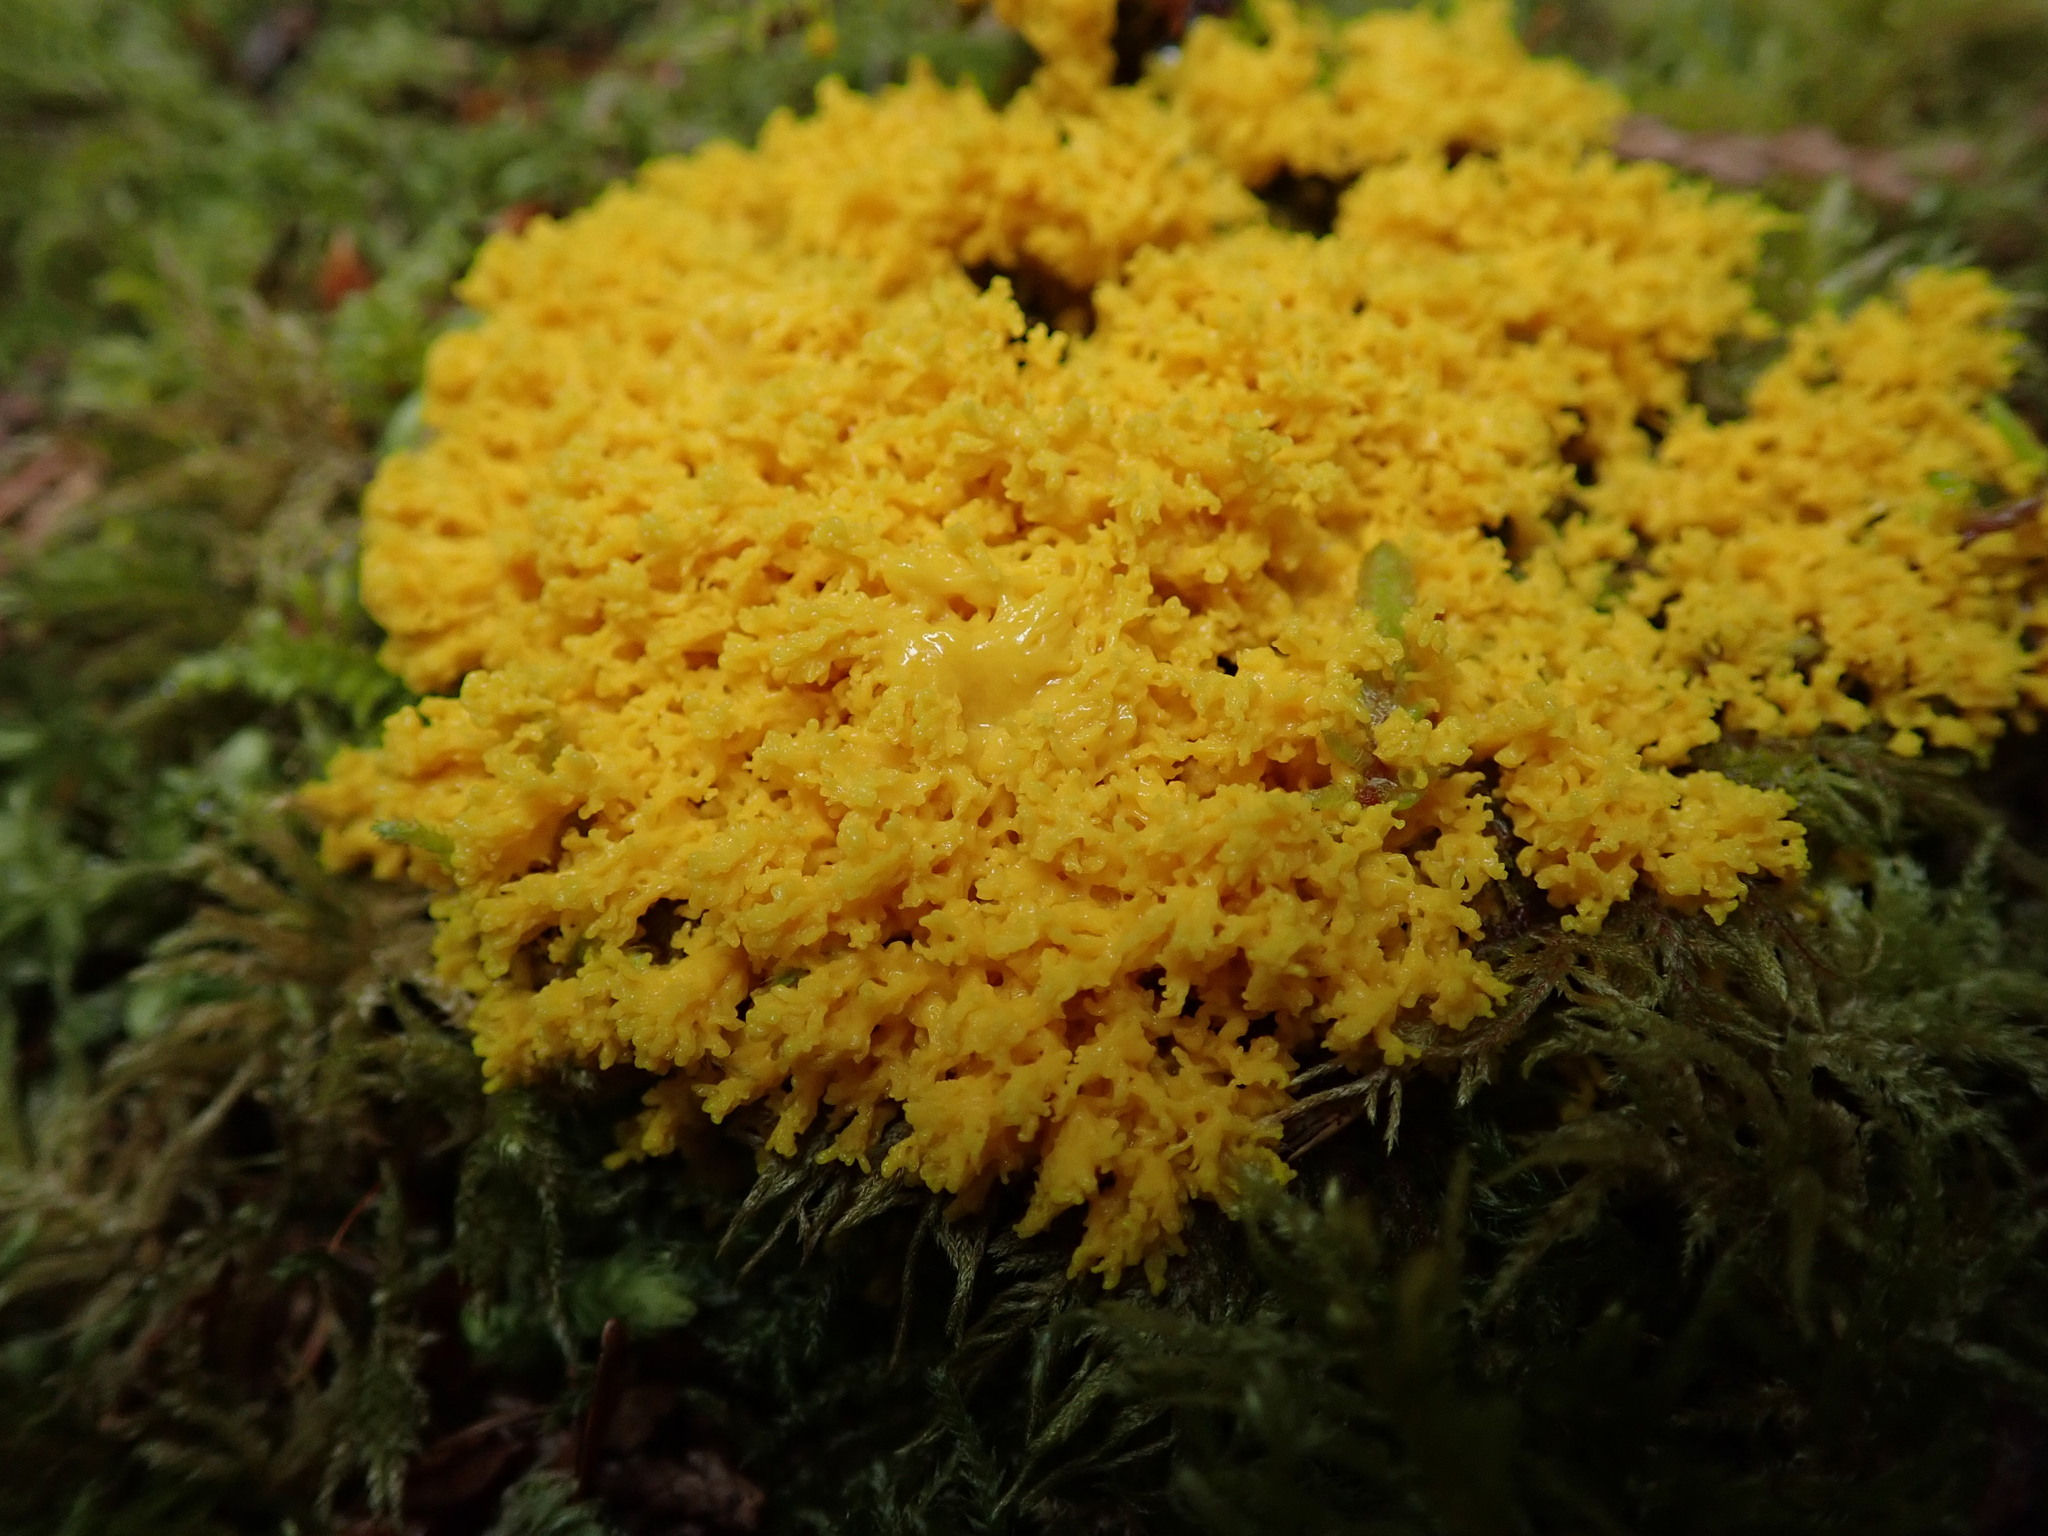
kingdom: Protozoa
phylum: Mycetozoa
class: Myxomycetes
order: Physarales
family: Physaraceae
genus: Fuligo
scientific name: Fuligo septica
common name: Dog vomit slime mold
